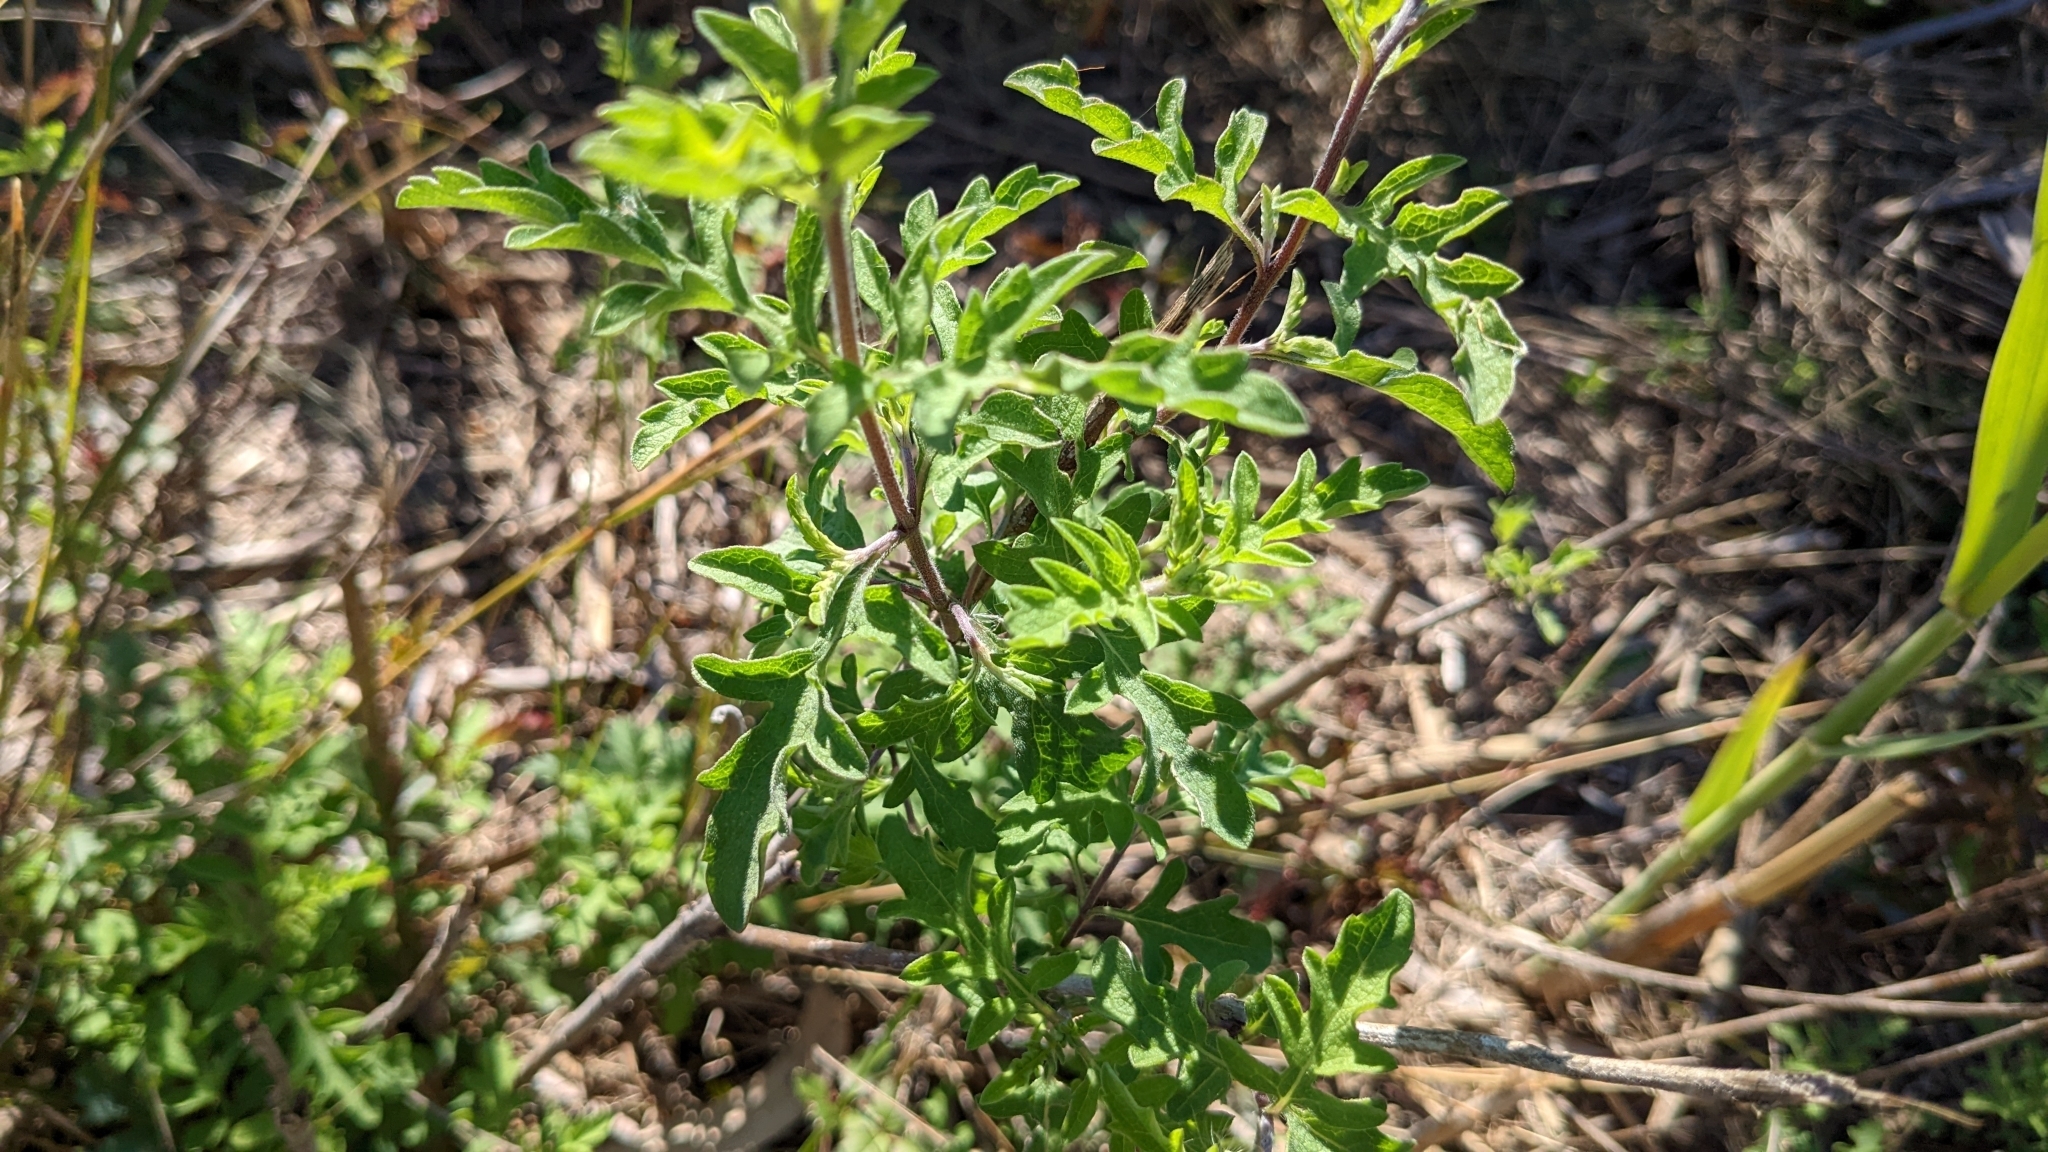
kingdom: Plantae
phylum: Tracheophyta
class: Magnoliopsida
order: Asterales
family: Asteraceae
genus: Ambrosia
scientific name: Ambrosia psilostachya
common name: Perennial ragweed
